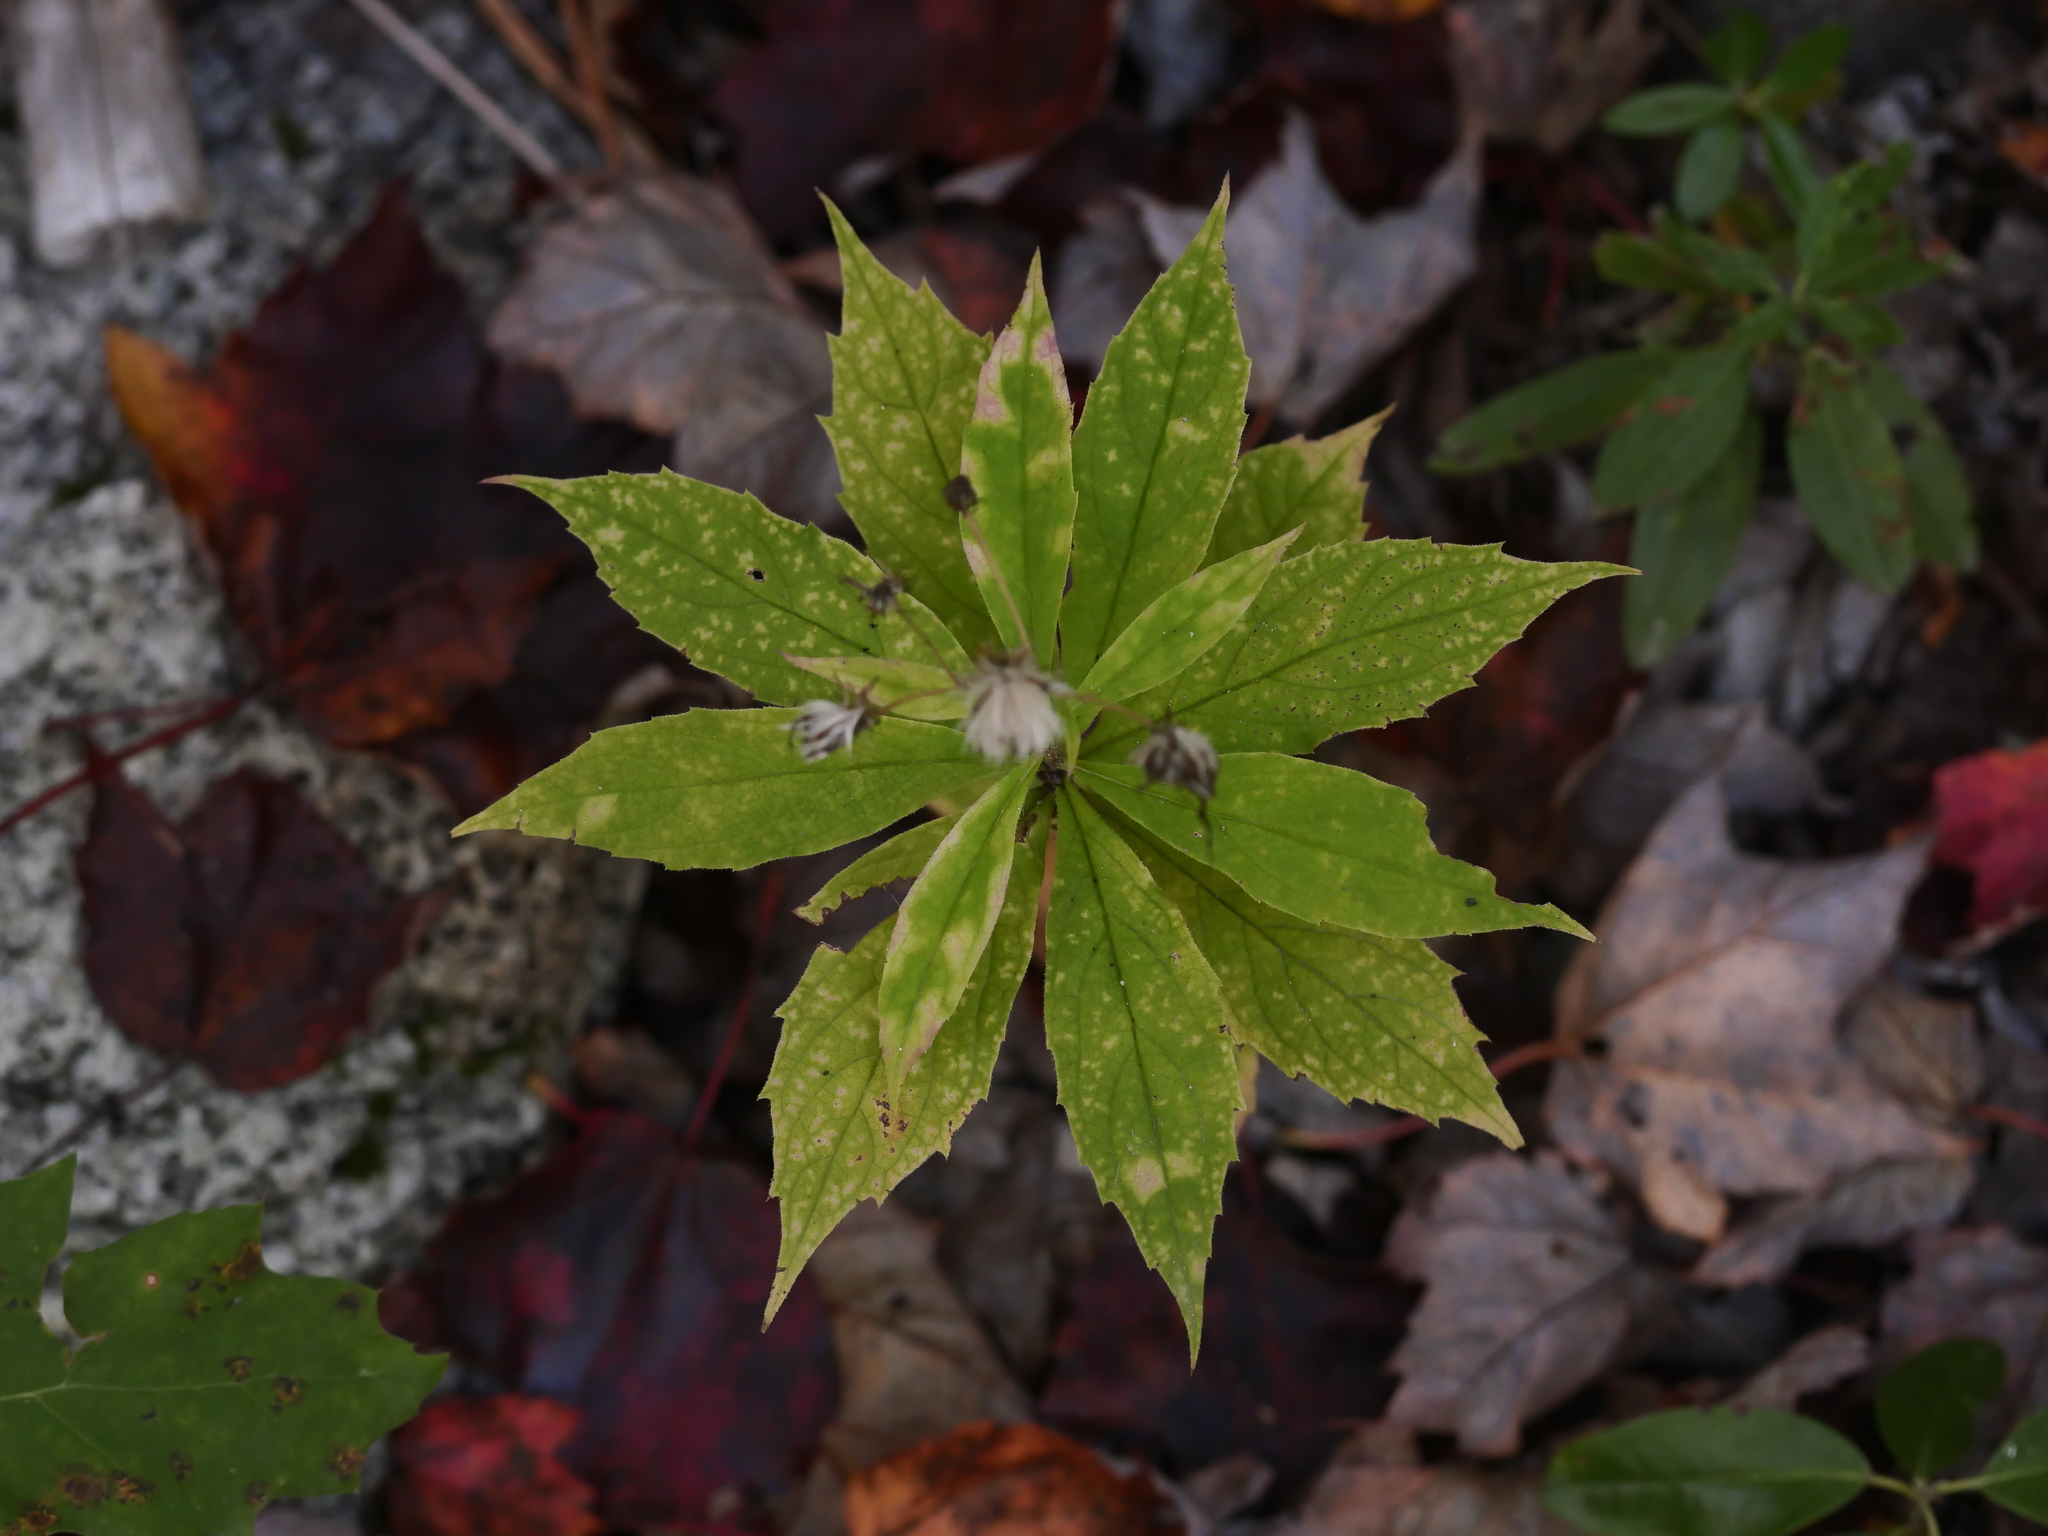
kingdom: Plantae
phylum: Tracheophyta
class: Magnoliopsida
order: Asterales
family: Asteraceae
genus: Oclemena
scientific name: Oclemena acuminata
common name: Mountain aster
